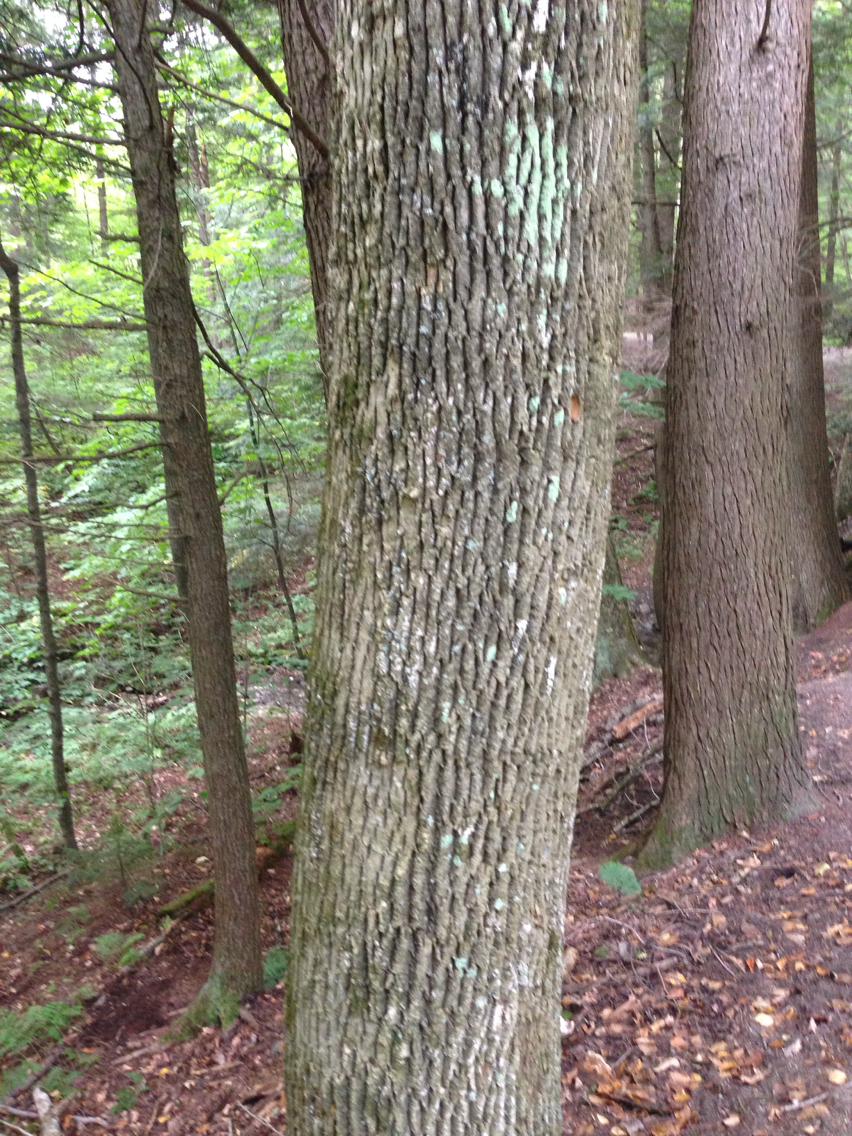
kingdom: Plantae
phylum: Tracheophyta
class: Magnoliopsida
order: Lamiales
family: Oleaceae
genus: Fraxinus
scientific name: Fraxinus americana
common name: White ash
